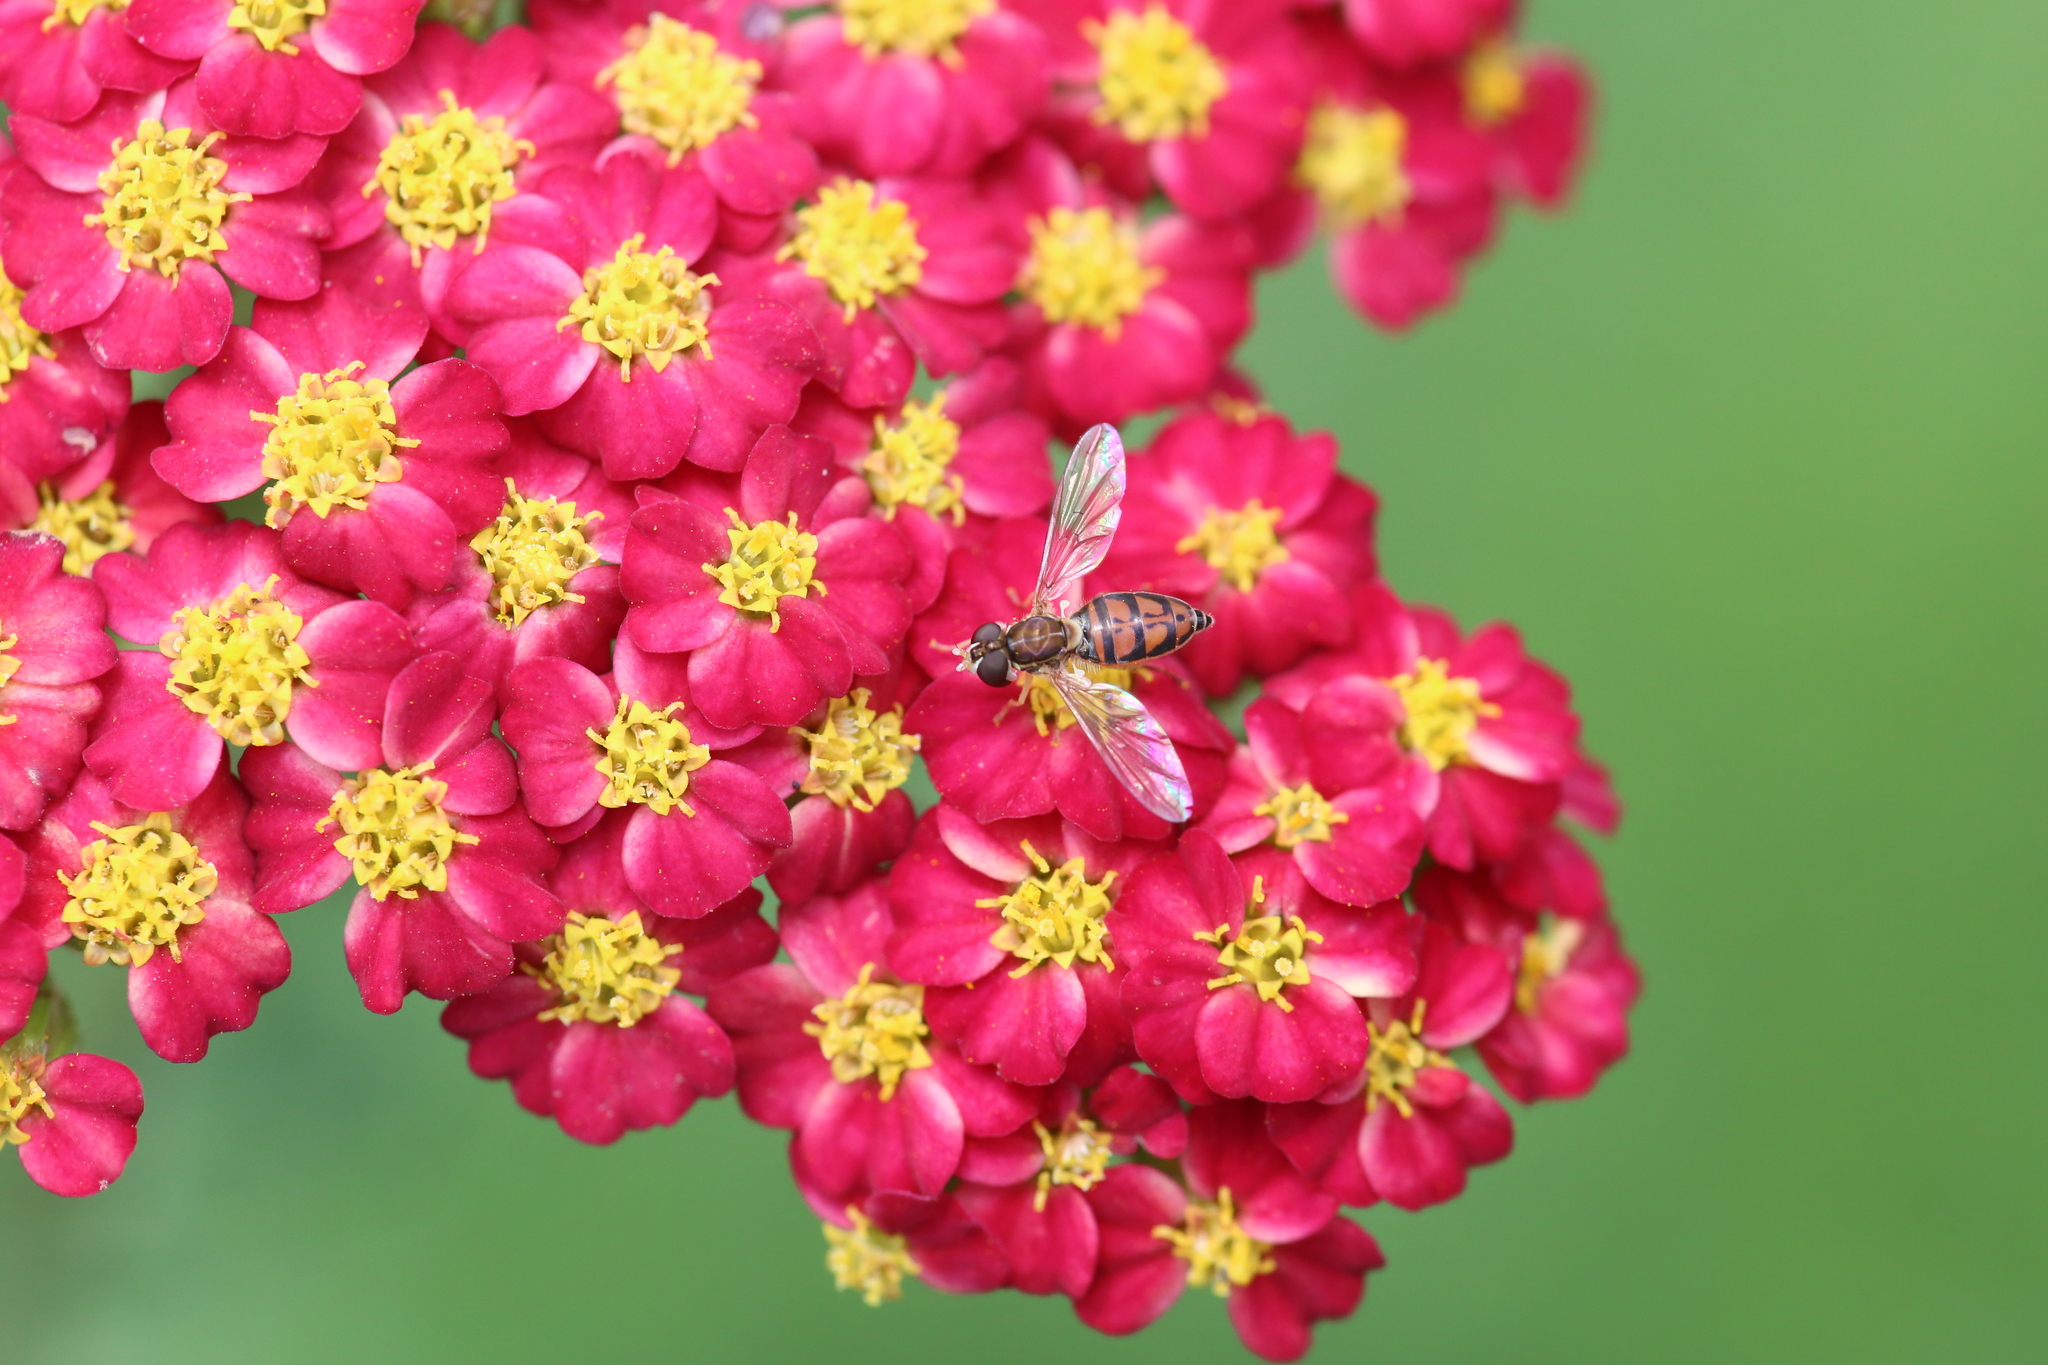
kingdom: Animalia
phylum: Arthropoda
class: Insecta
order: Diptera
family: Syrphidae
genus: Toxomerus
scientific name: Toxomerus marginatus
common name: Syrphid fly
